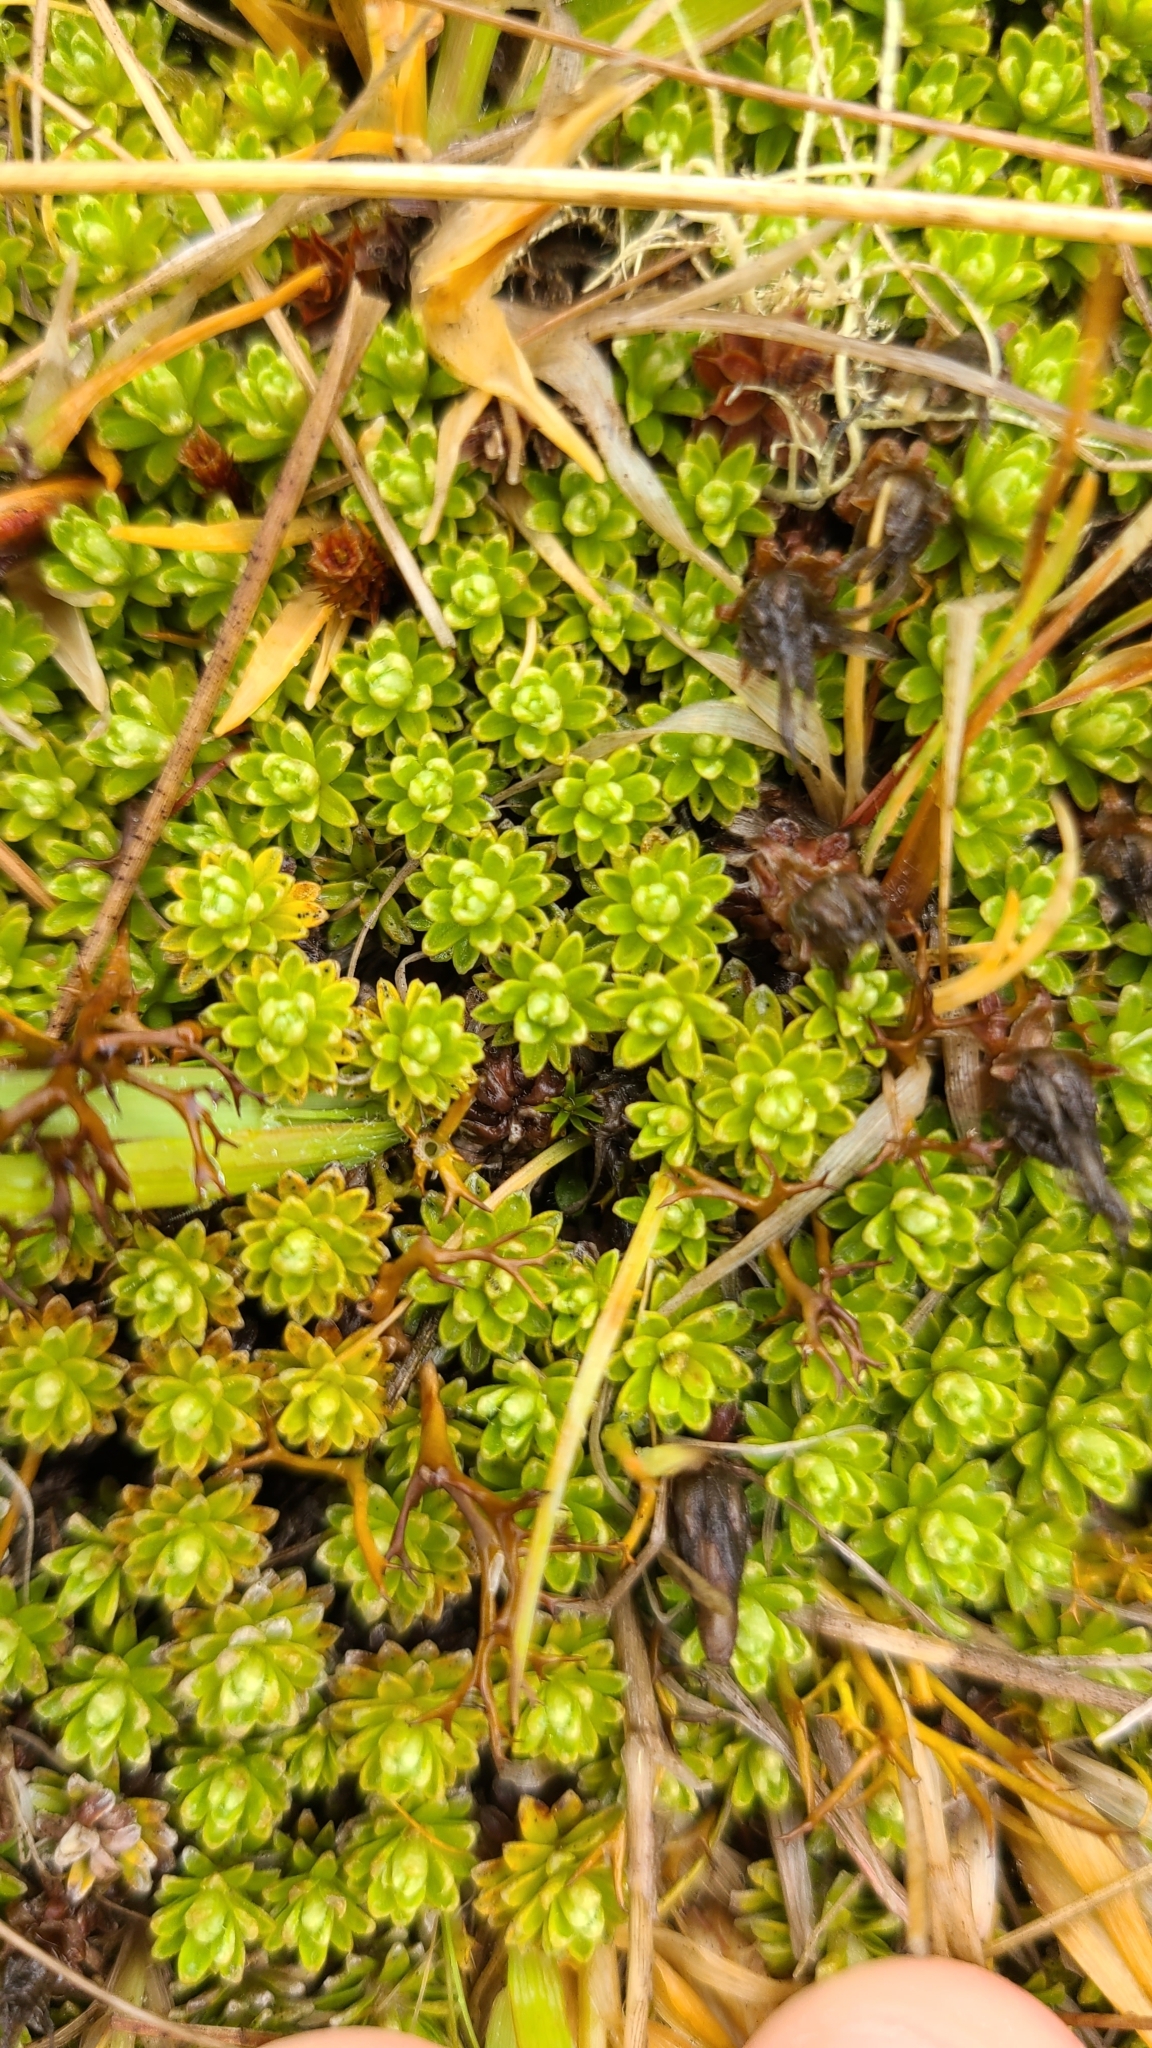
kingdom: Plantae
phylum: Tracheophyta
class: Magnoliopsida
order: Asterales
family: Asteraceae
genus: Raoulia
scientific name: Raoulia subsericea
